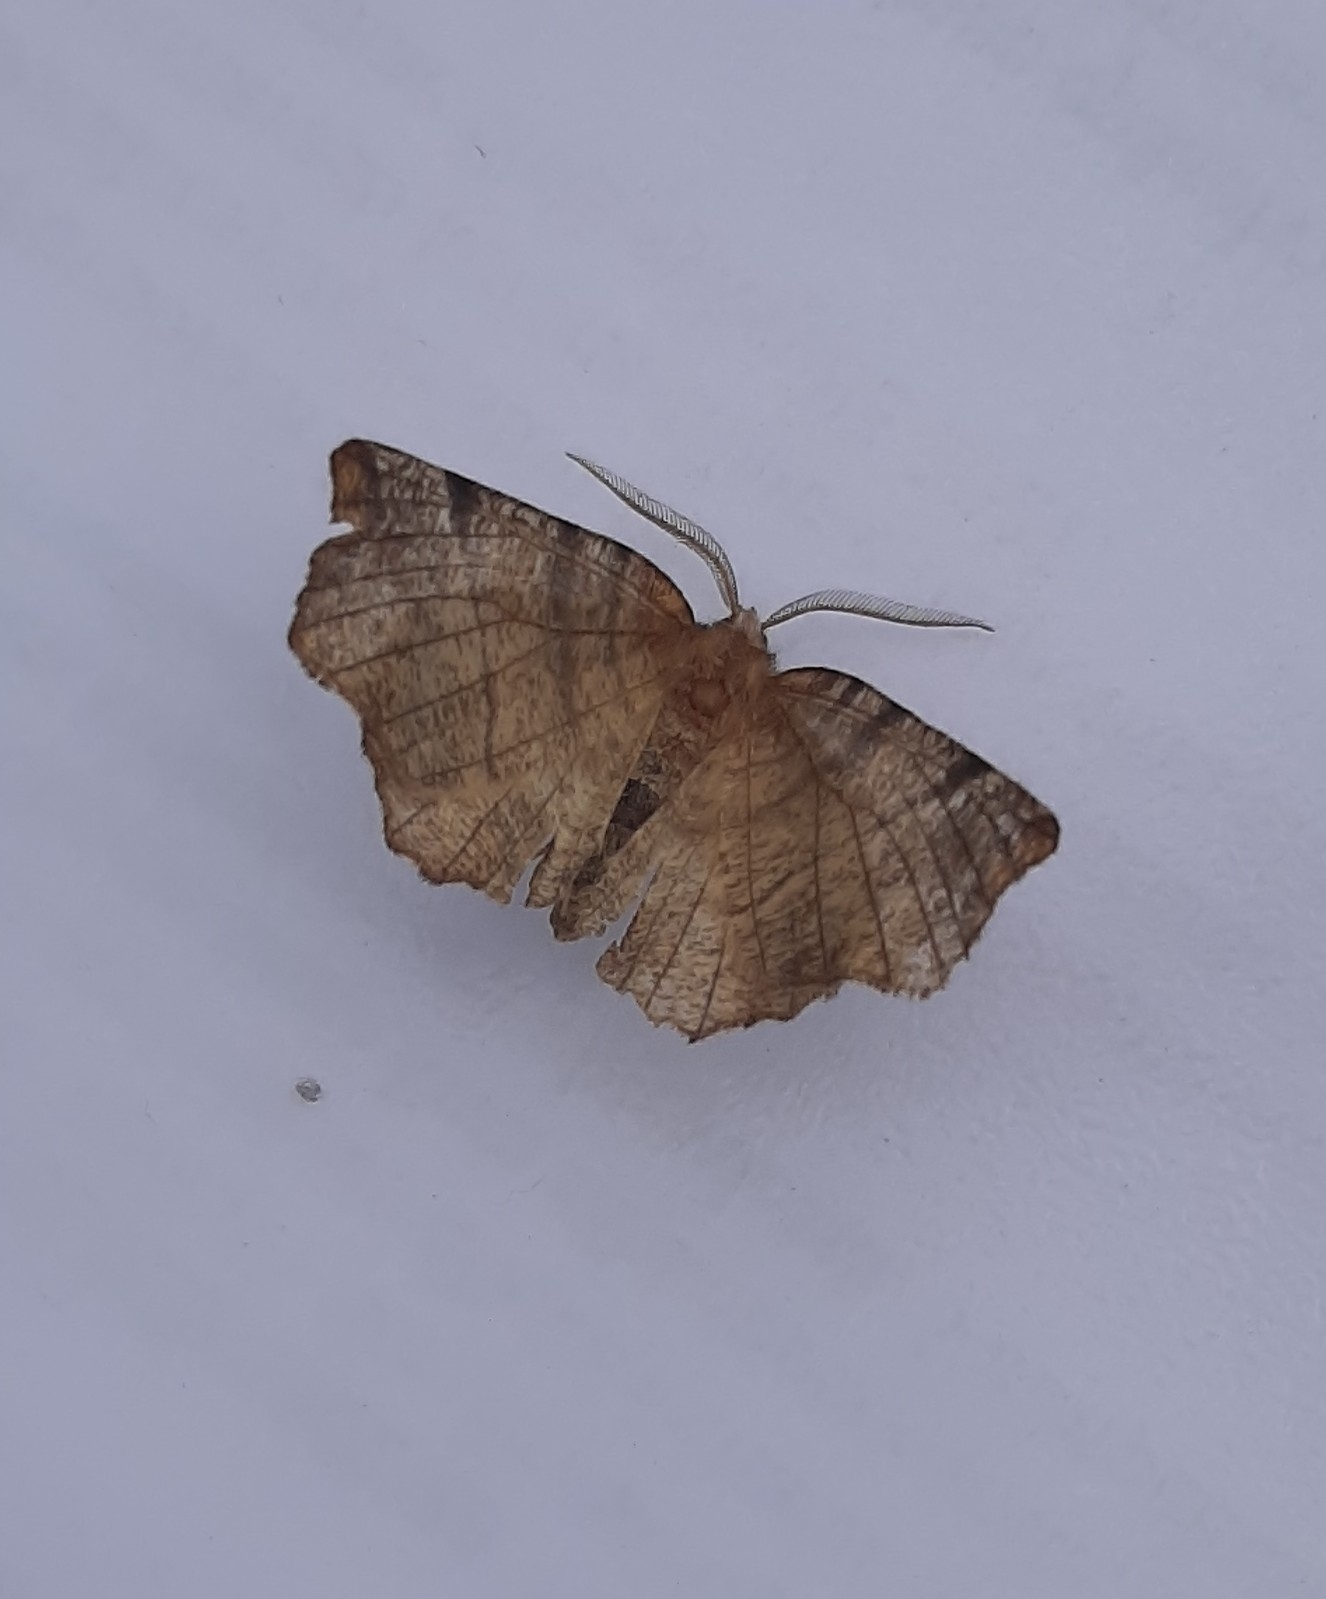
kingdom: Animalia
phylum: Arthropoda
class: Insecta
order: Lepidoptera
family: Geometridae
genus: Selenia
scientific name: Selenia dentaria
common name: Early thorn
